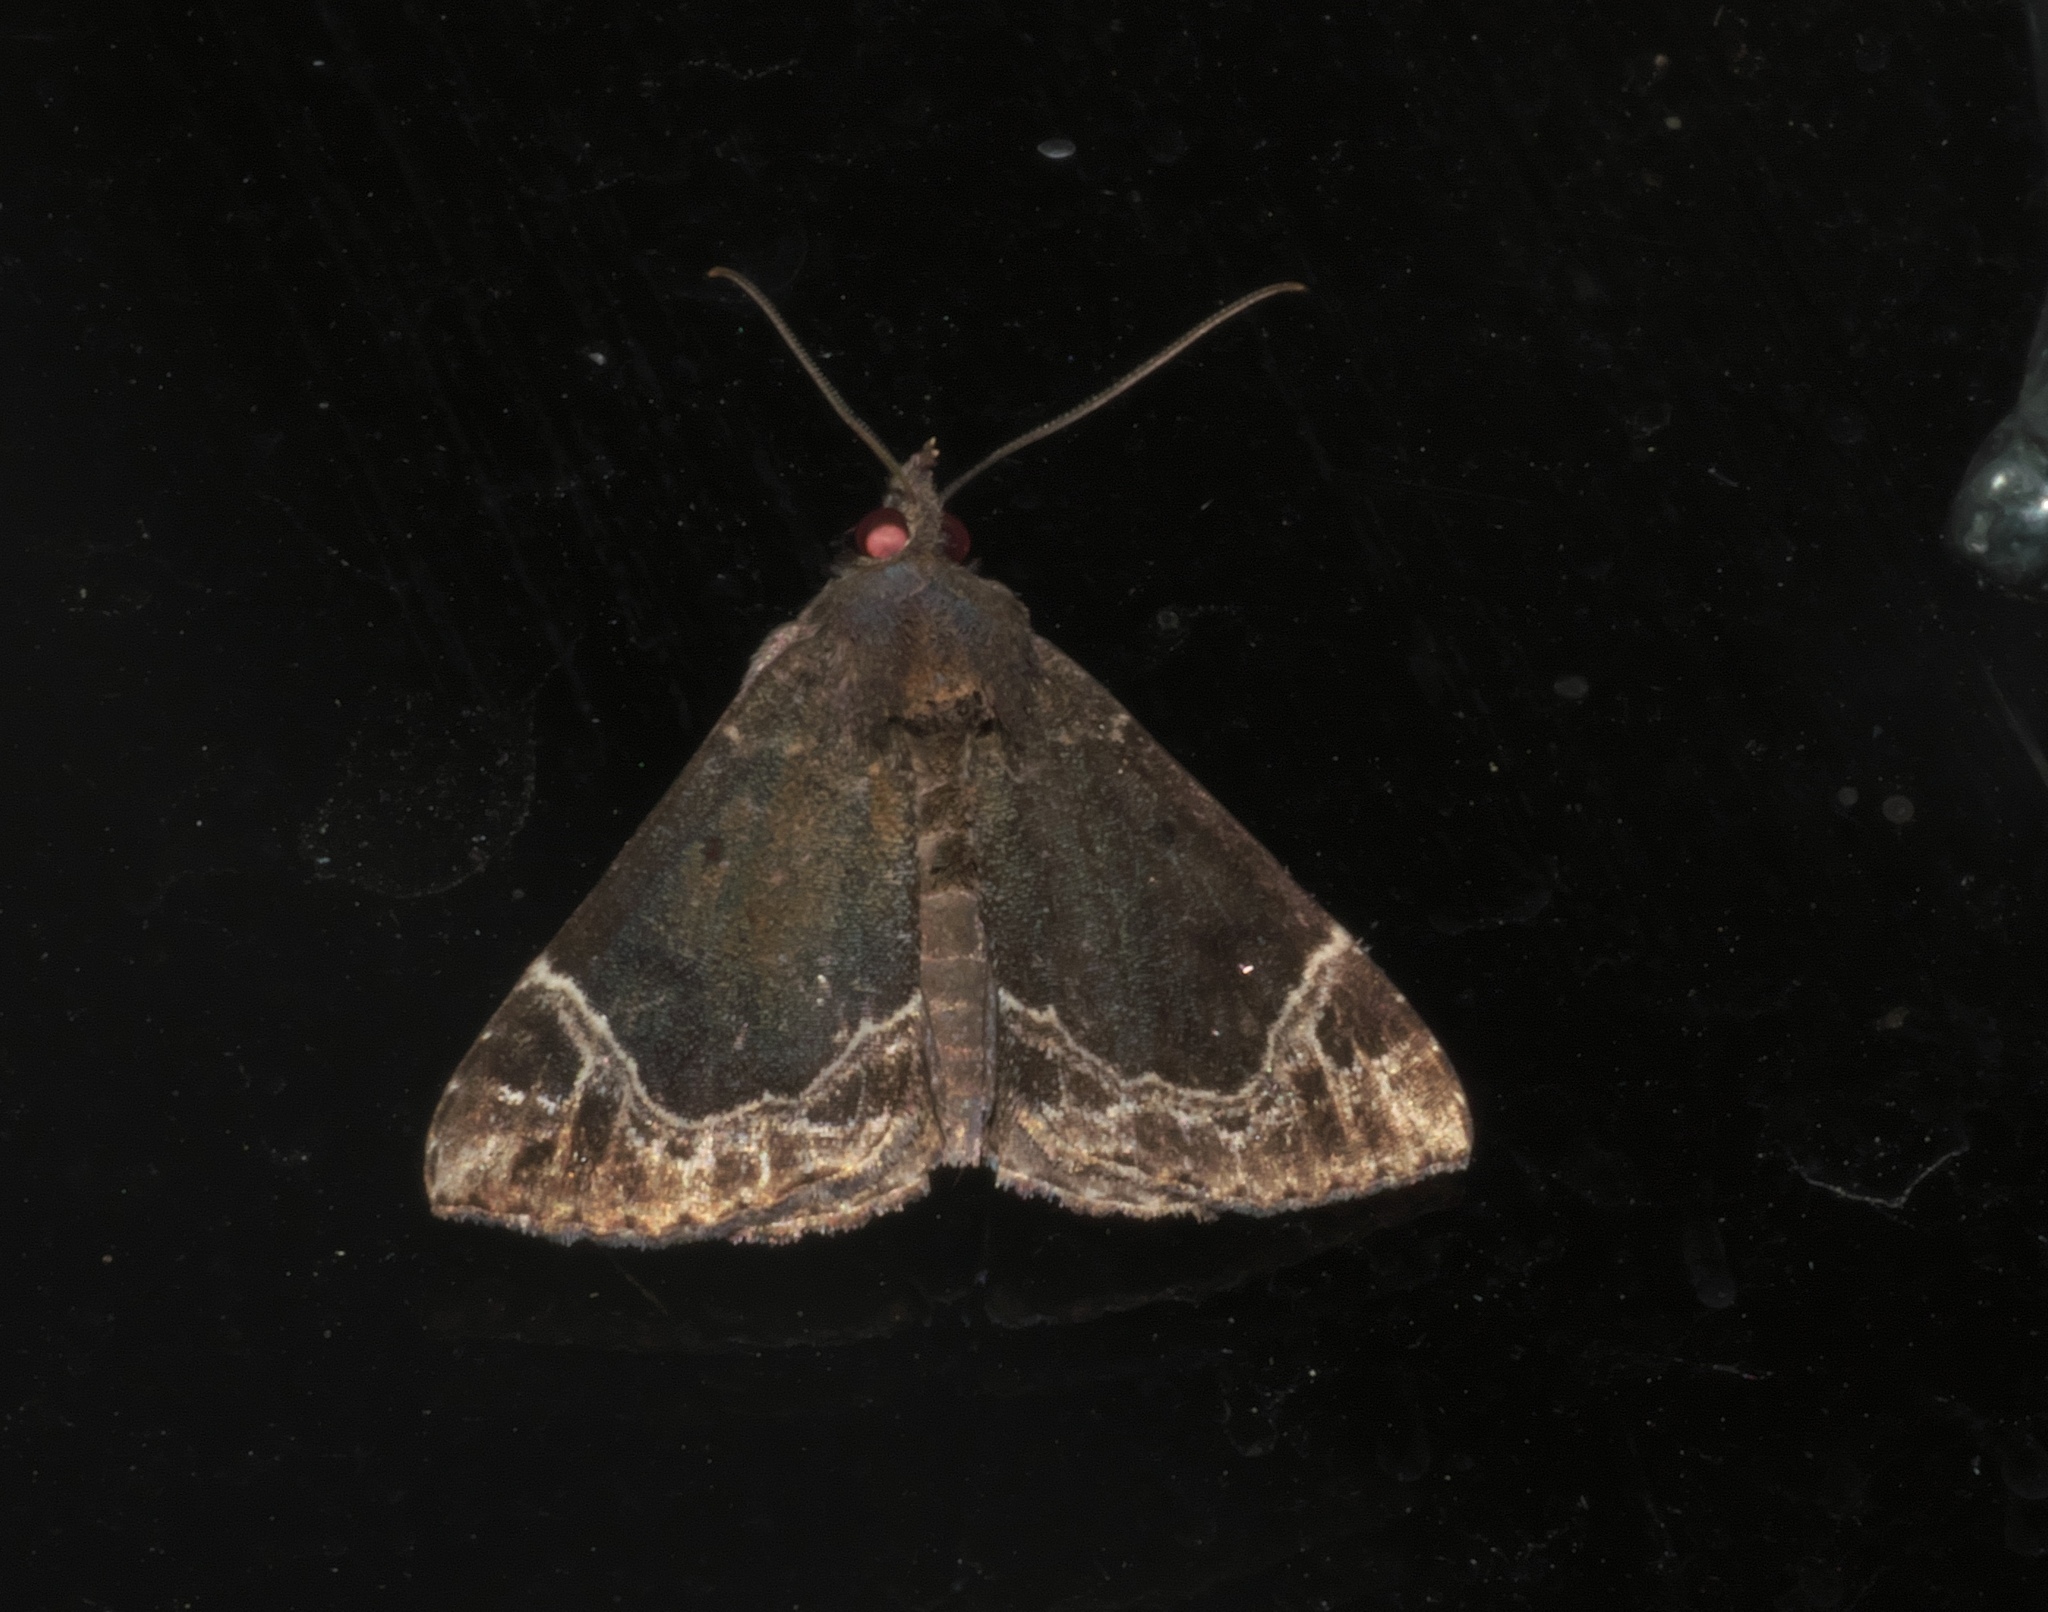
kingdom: Animalia
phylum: Arthropoda
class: Insecta
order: Lepidoptera
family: Erebidae
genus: Hypena
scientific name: Hypena abalienalis
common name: White-lined snout
